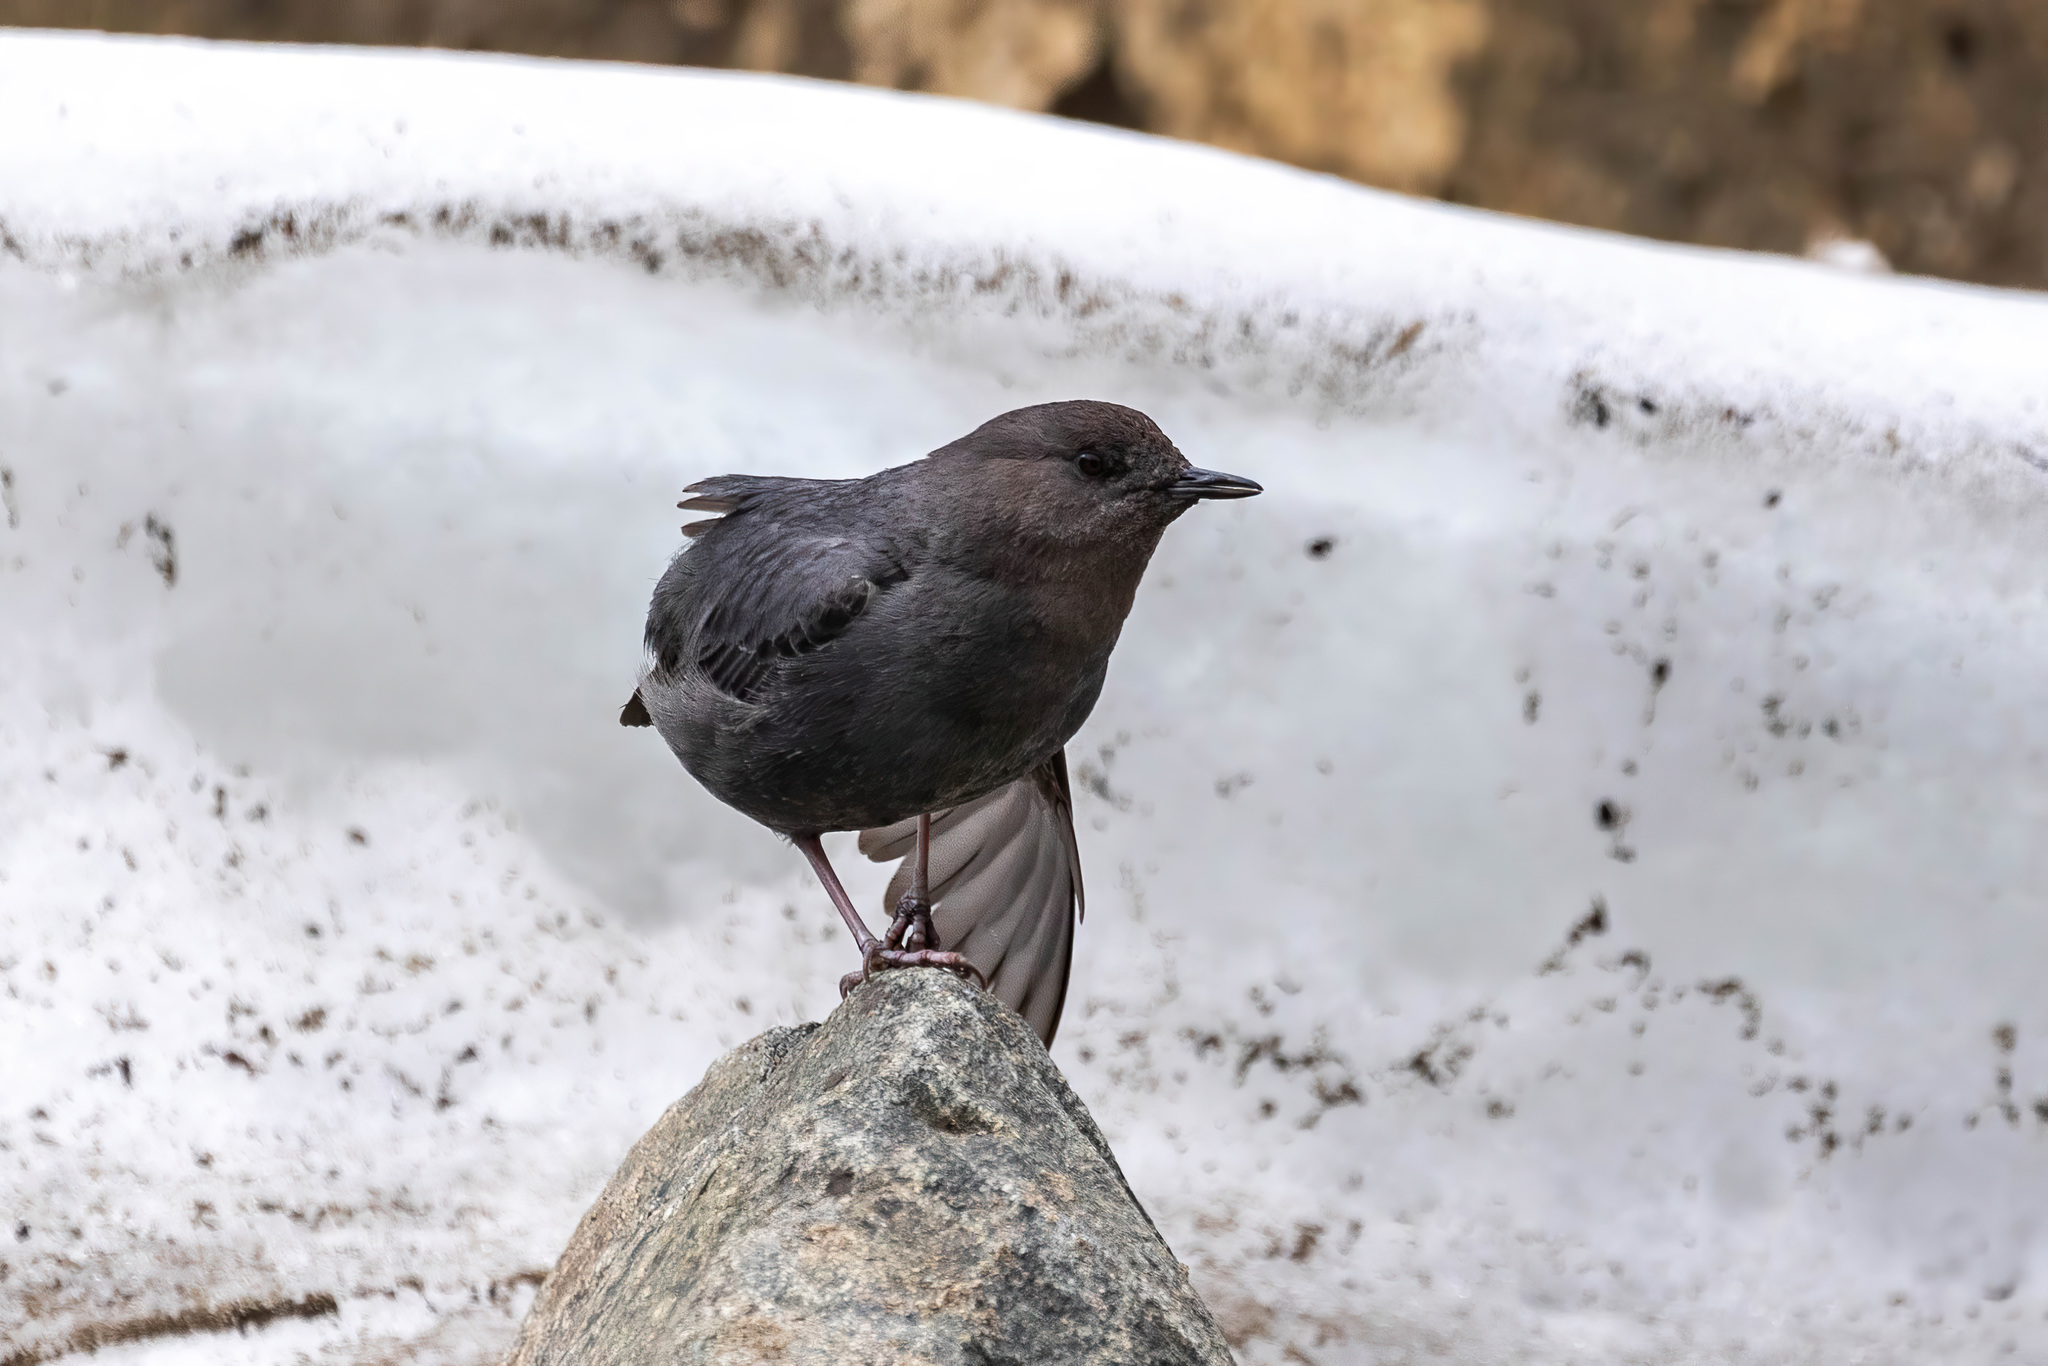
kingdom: Animalia
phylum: Chordata
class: Aves
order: Passeriformes
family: Cinclidae
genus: Cinclus
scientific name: Cinclus mexicanus
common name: American dipper
